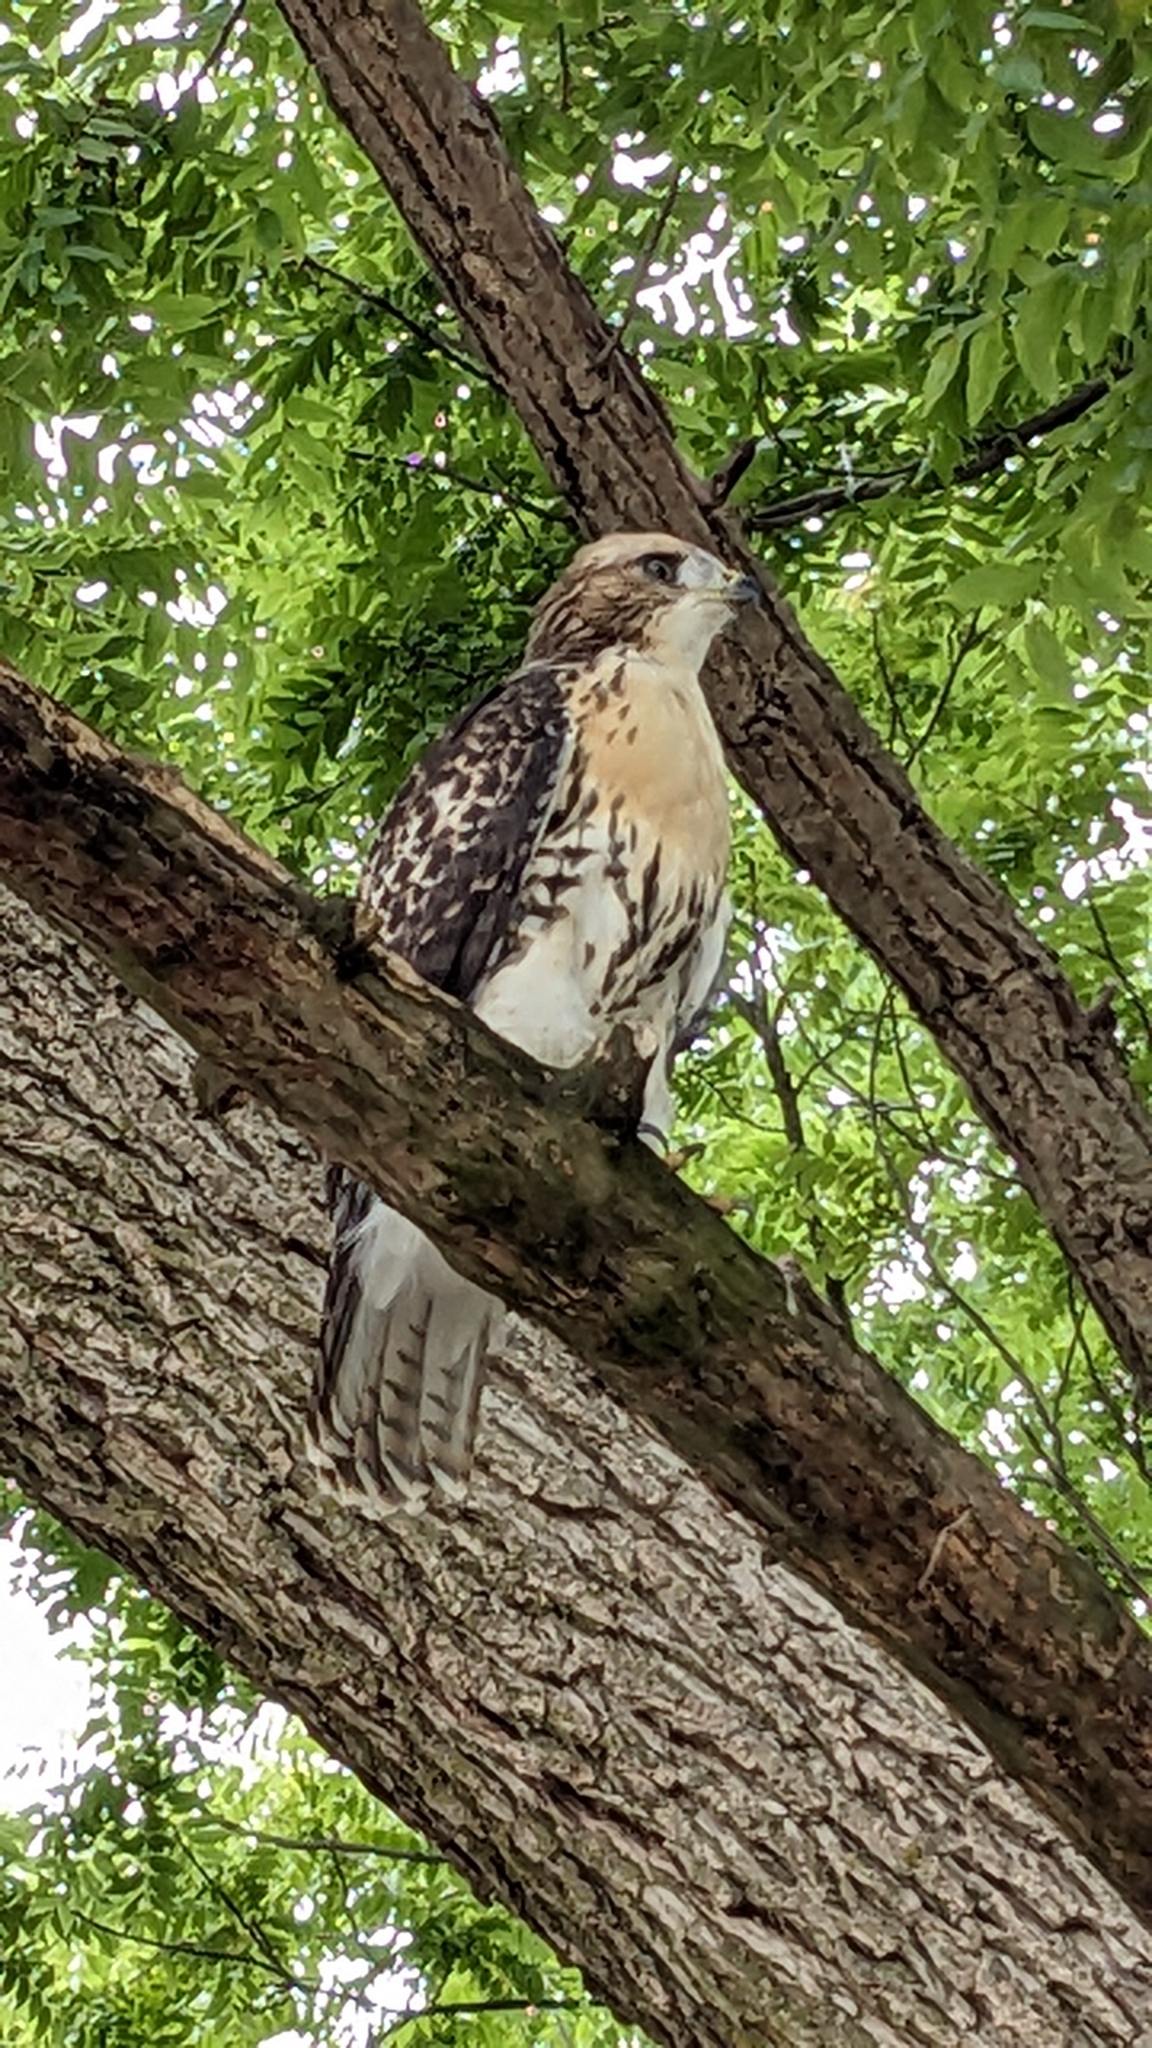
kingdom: Animalia
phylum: Chordata
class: Aves
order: Accipitriformes
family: Accipitridae
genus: Buteo
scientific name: Buteo jamaicensis
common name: Red-tailed hawk
